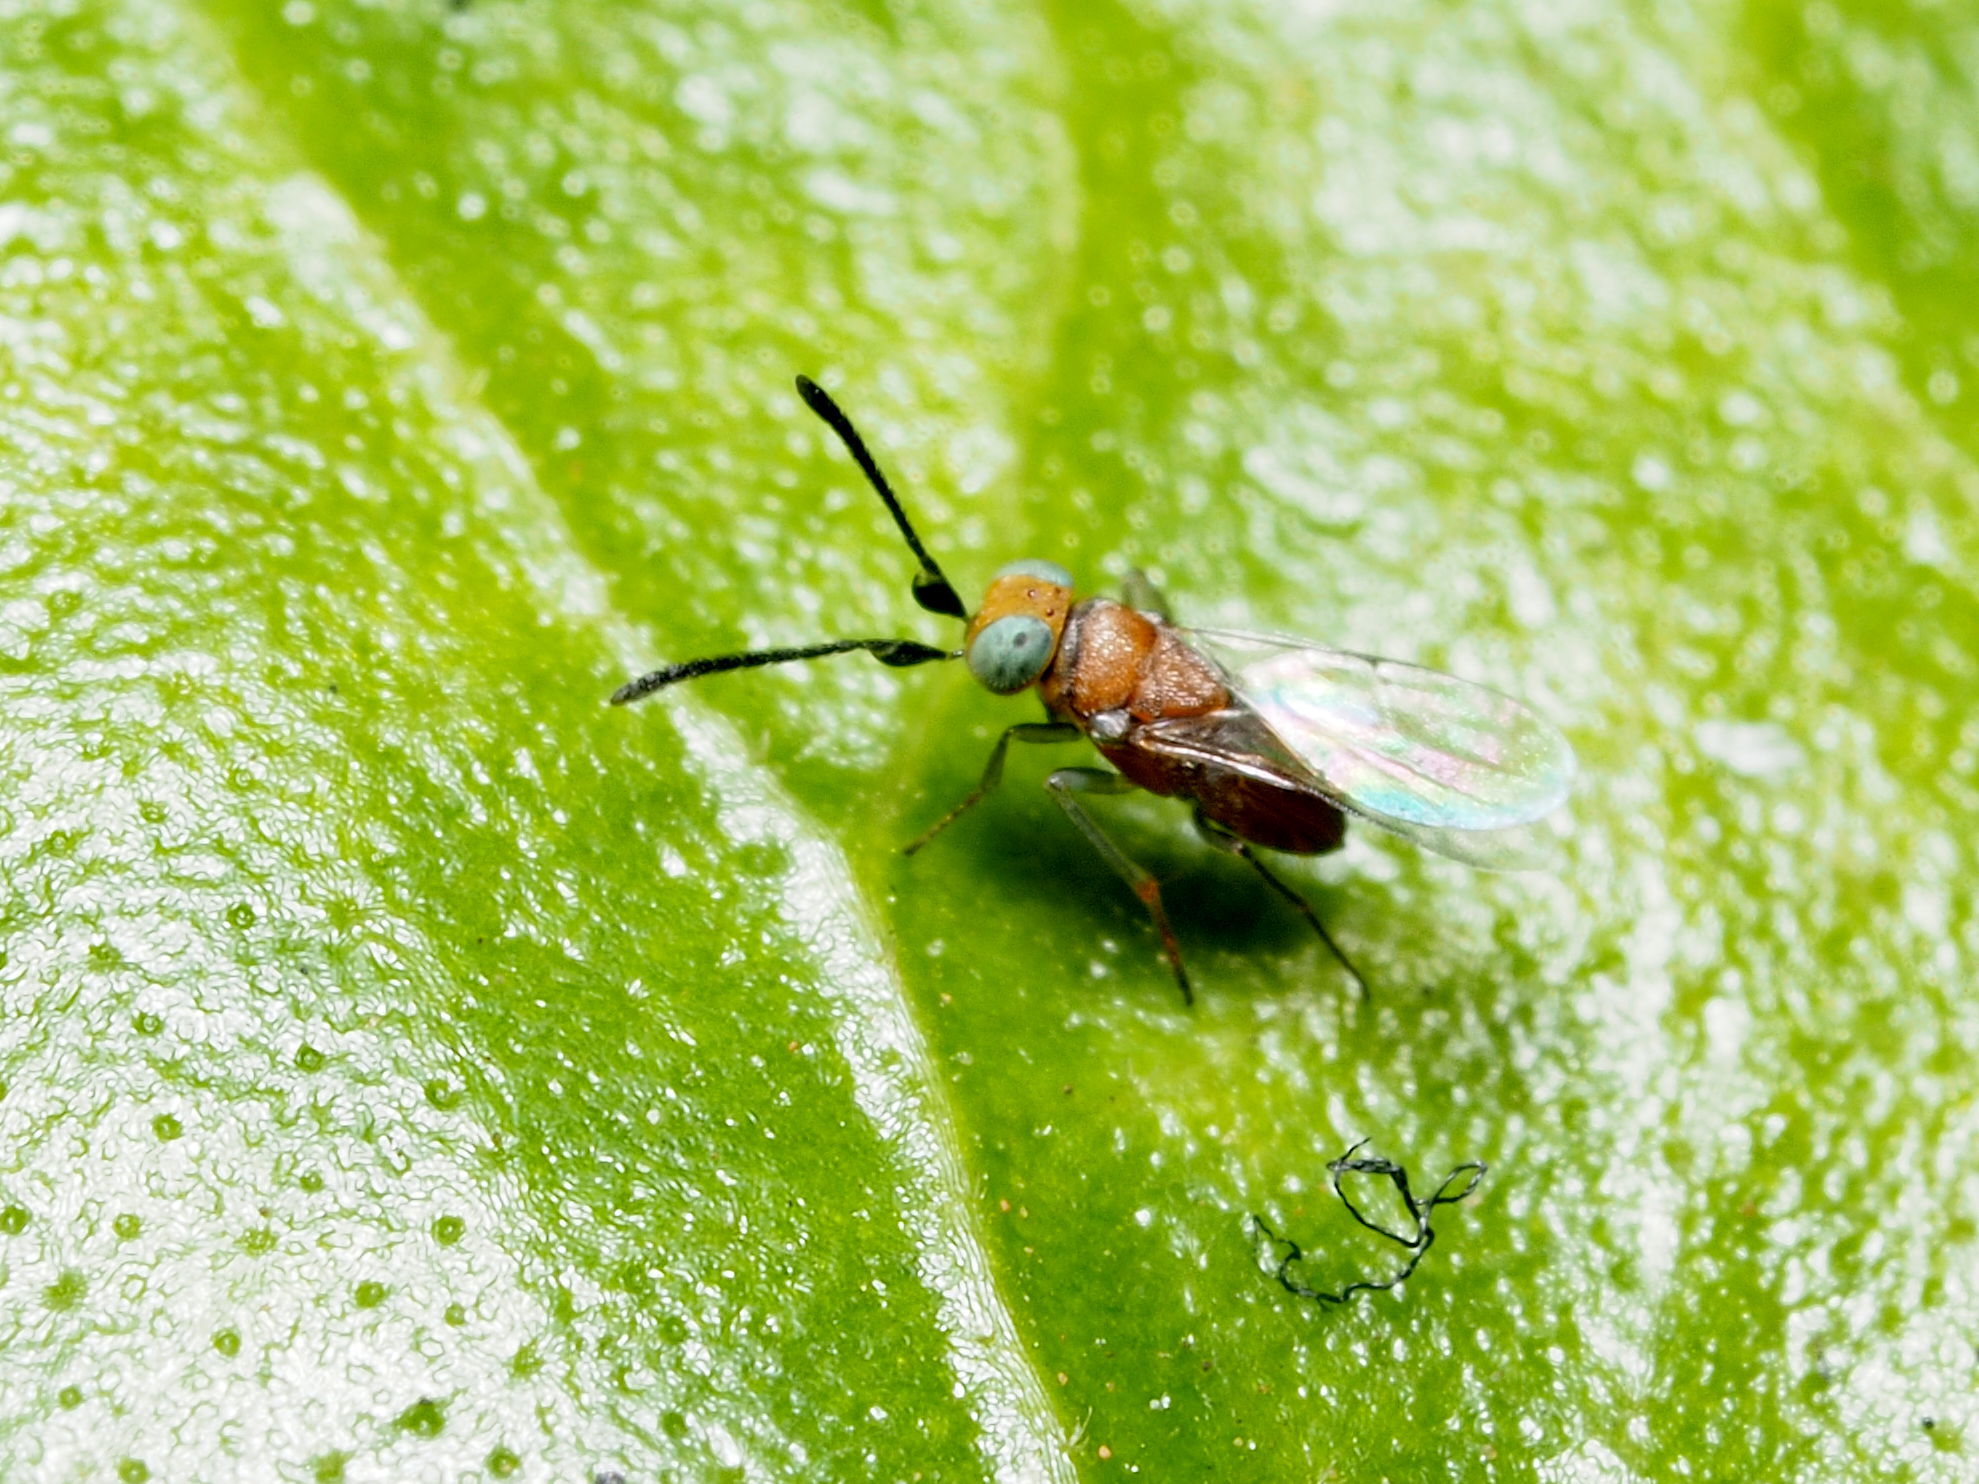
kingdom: Animalia
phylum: Arthropoda
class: Insecta
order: Hymenoptera
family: Encyrtidae
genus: Anagyrus
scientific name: Anagyrus securicornis
